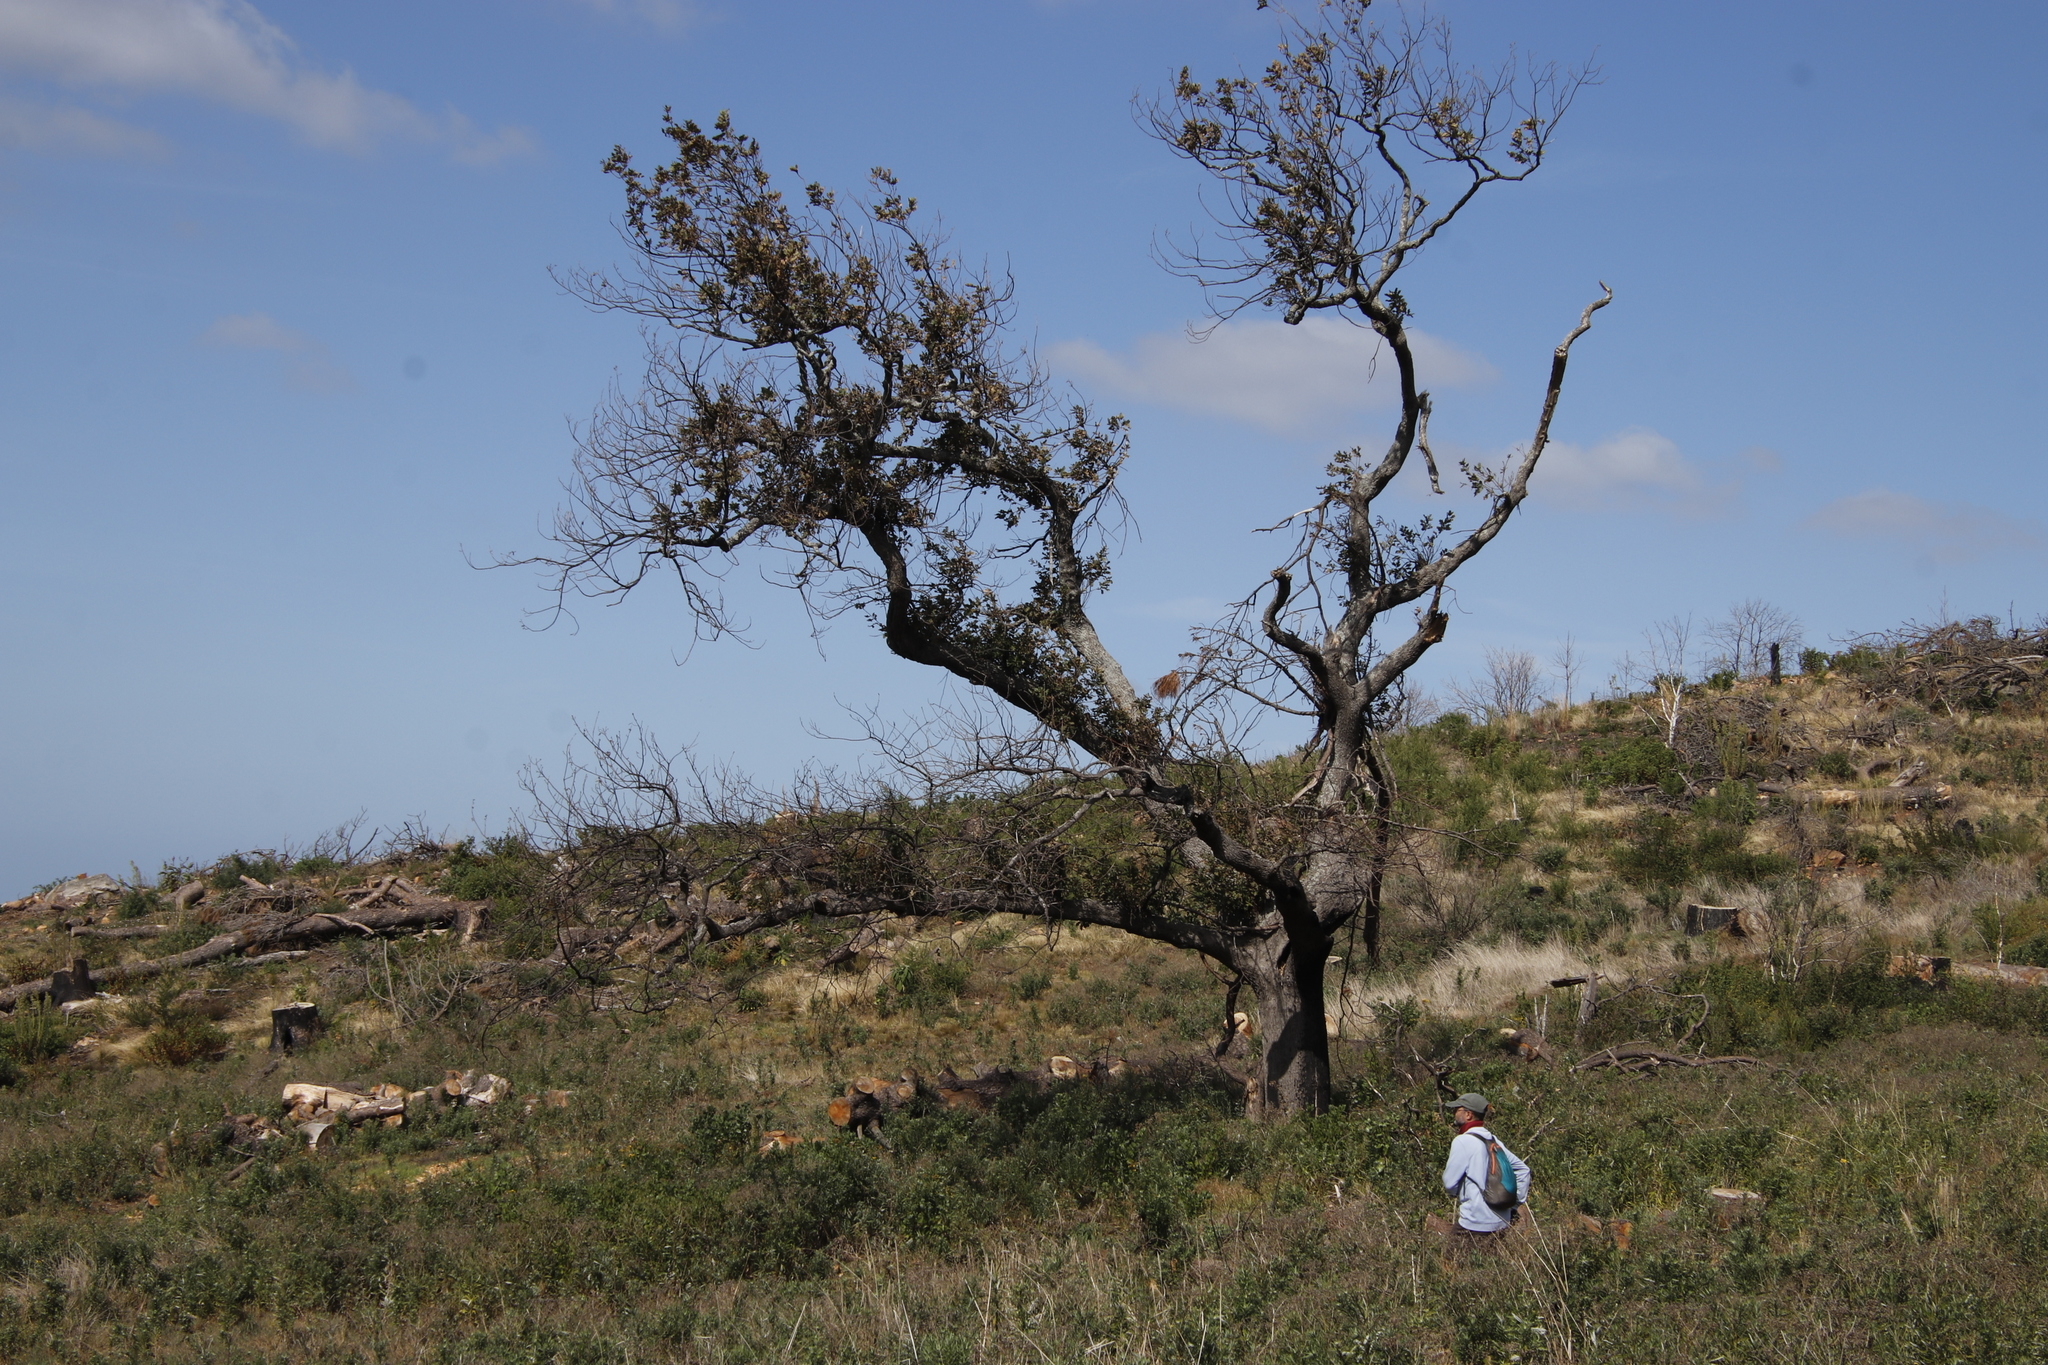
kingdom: Plantae
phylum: Tracheophyta
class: Magnoliopsida
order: Fagales
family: Fagaceae
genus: Quercus
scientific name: Quercus robur
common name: Pedunculate oak
